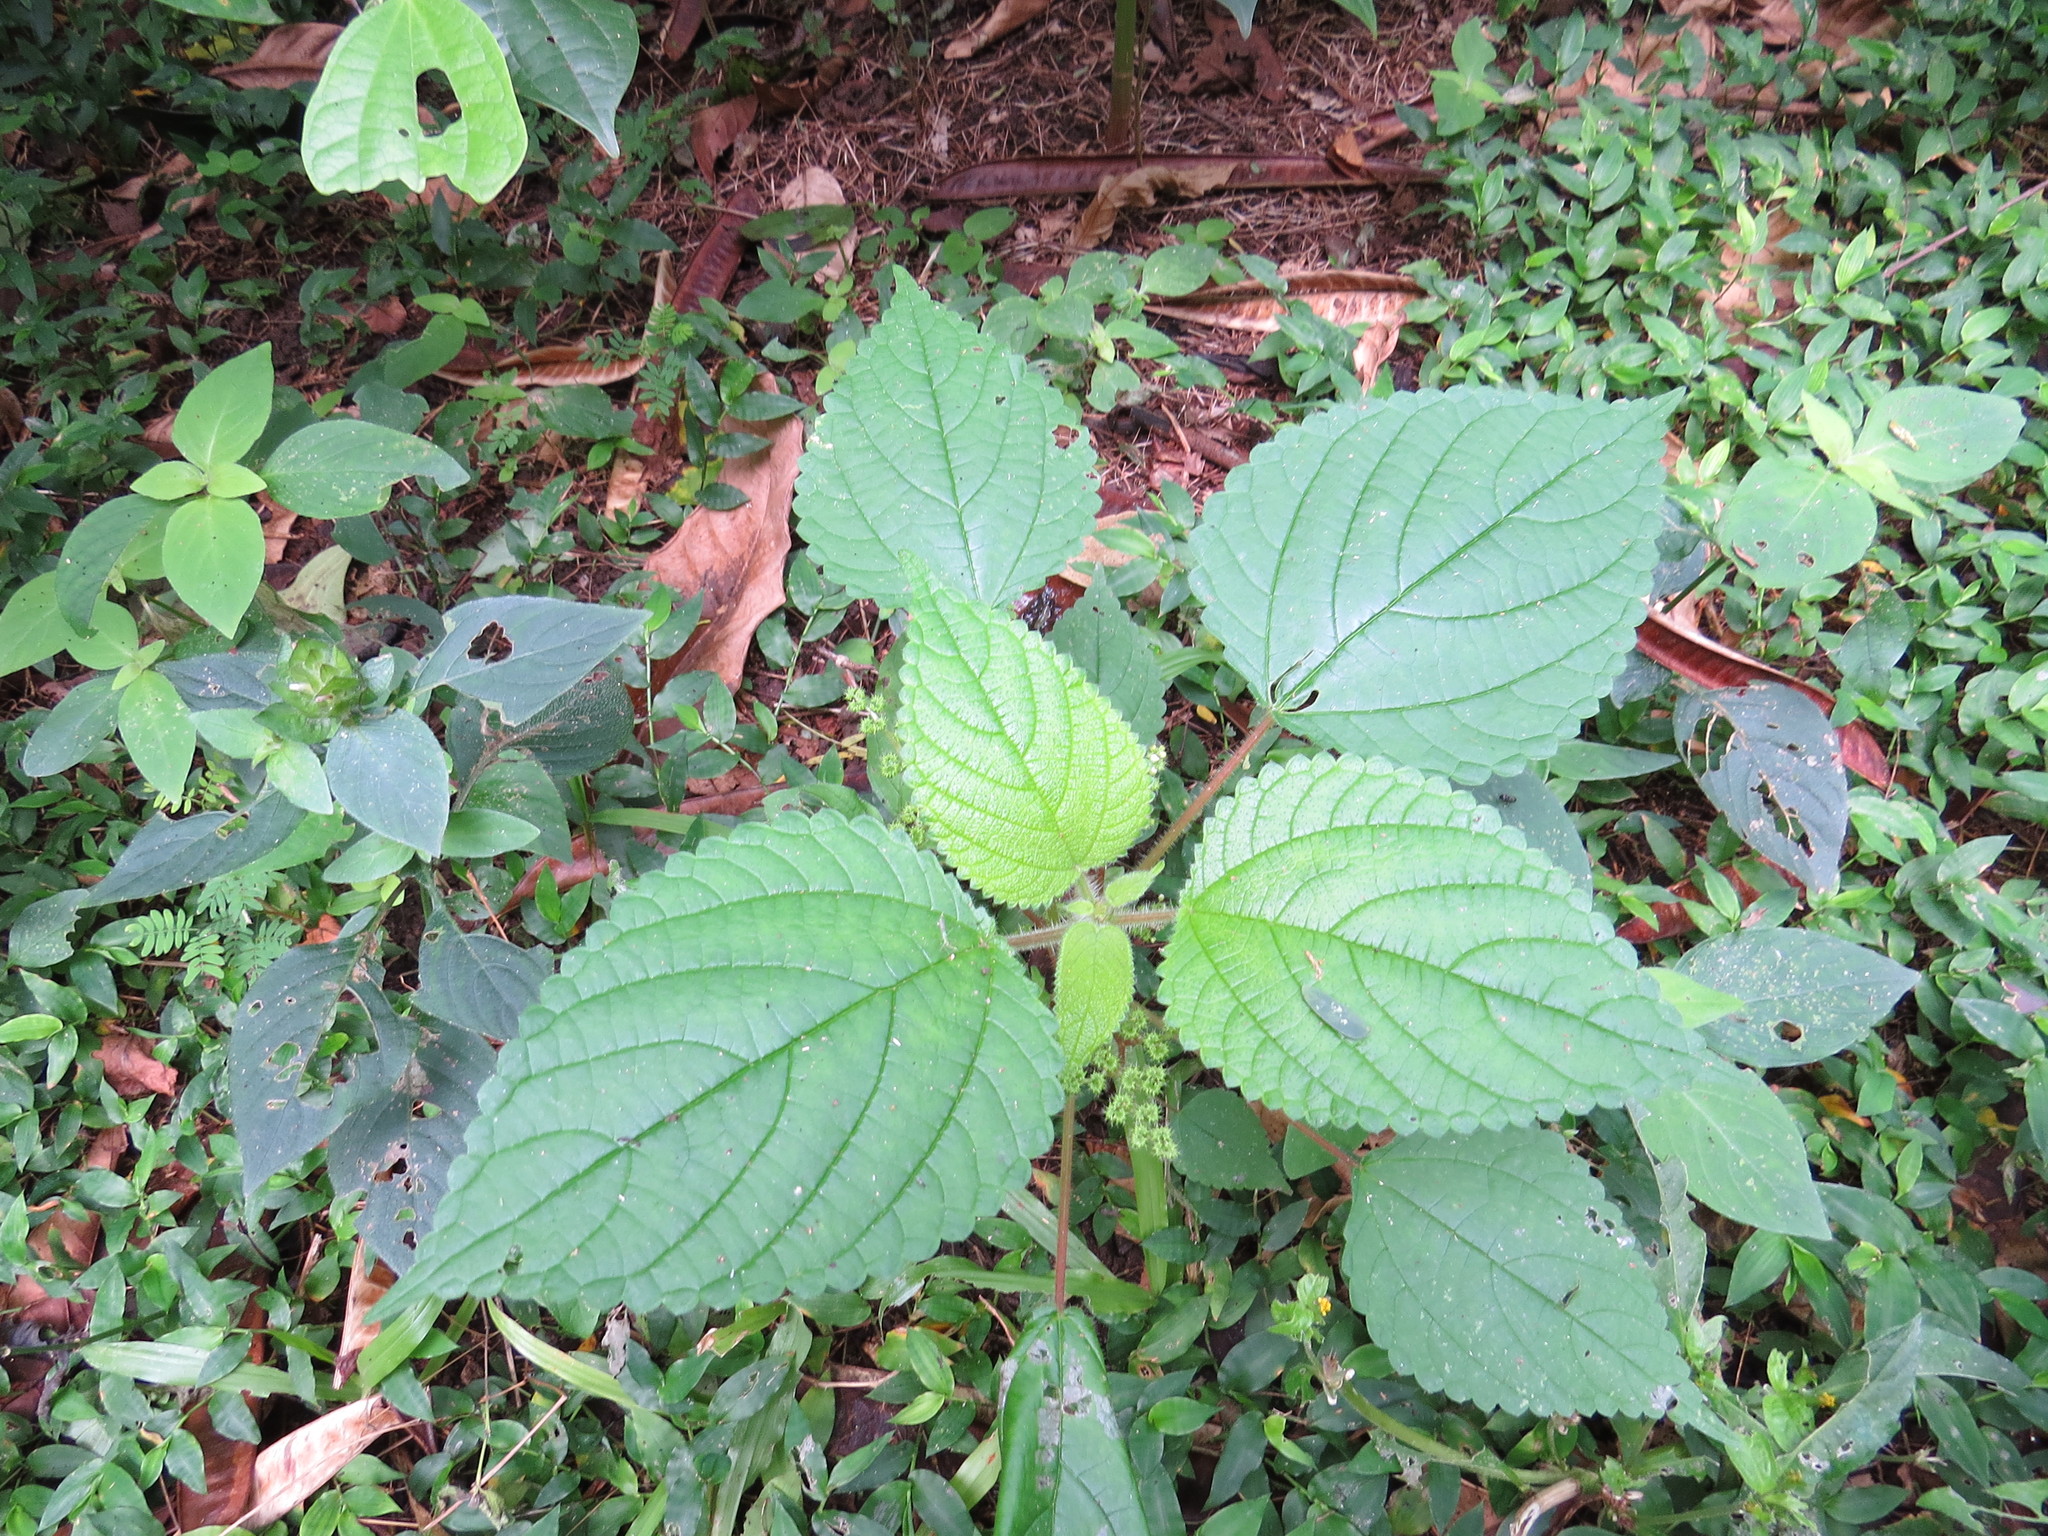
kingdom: Plantae
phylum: Tracheophyta
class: Magnoliopsida
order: Rosales
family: Urticaceae
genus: Laportea
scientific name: Laportea aestuans
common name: West indian woodnettle
